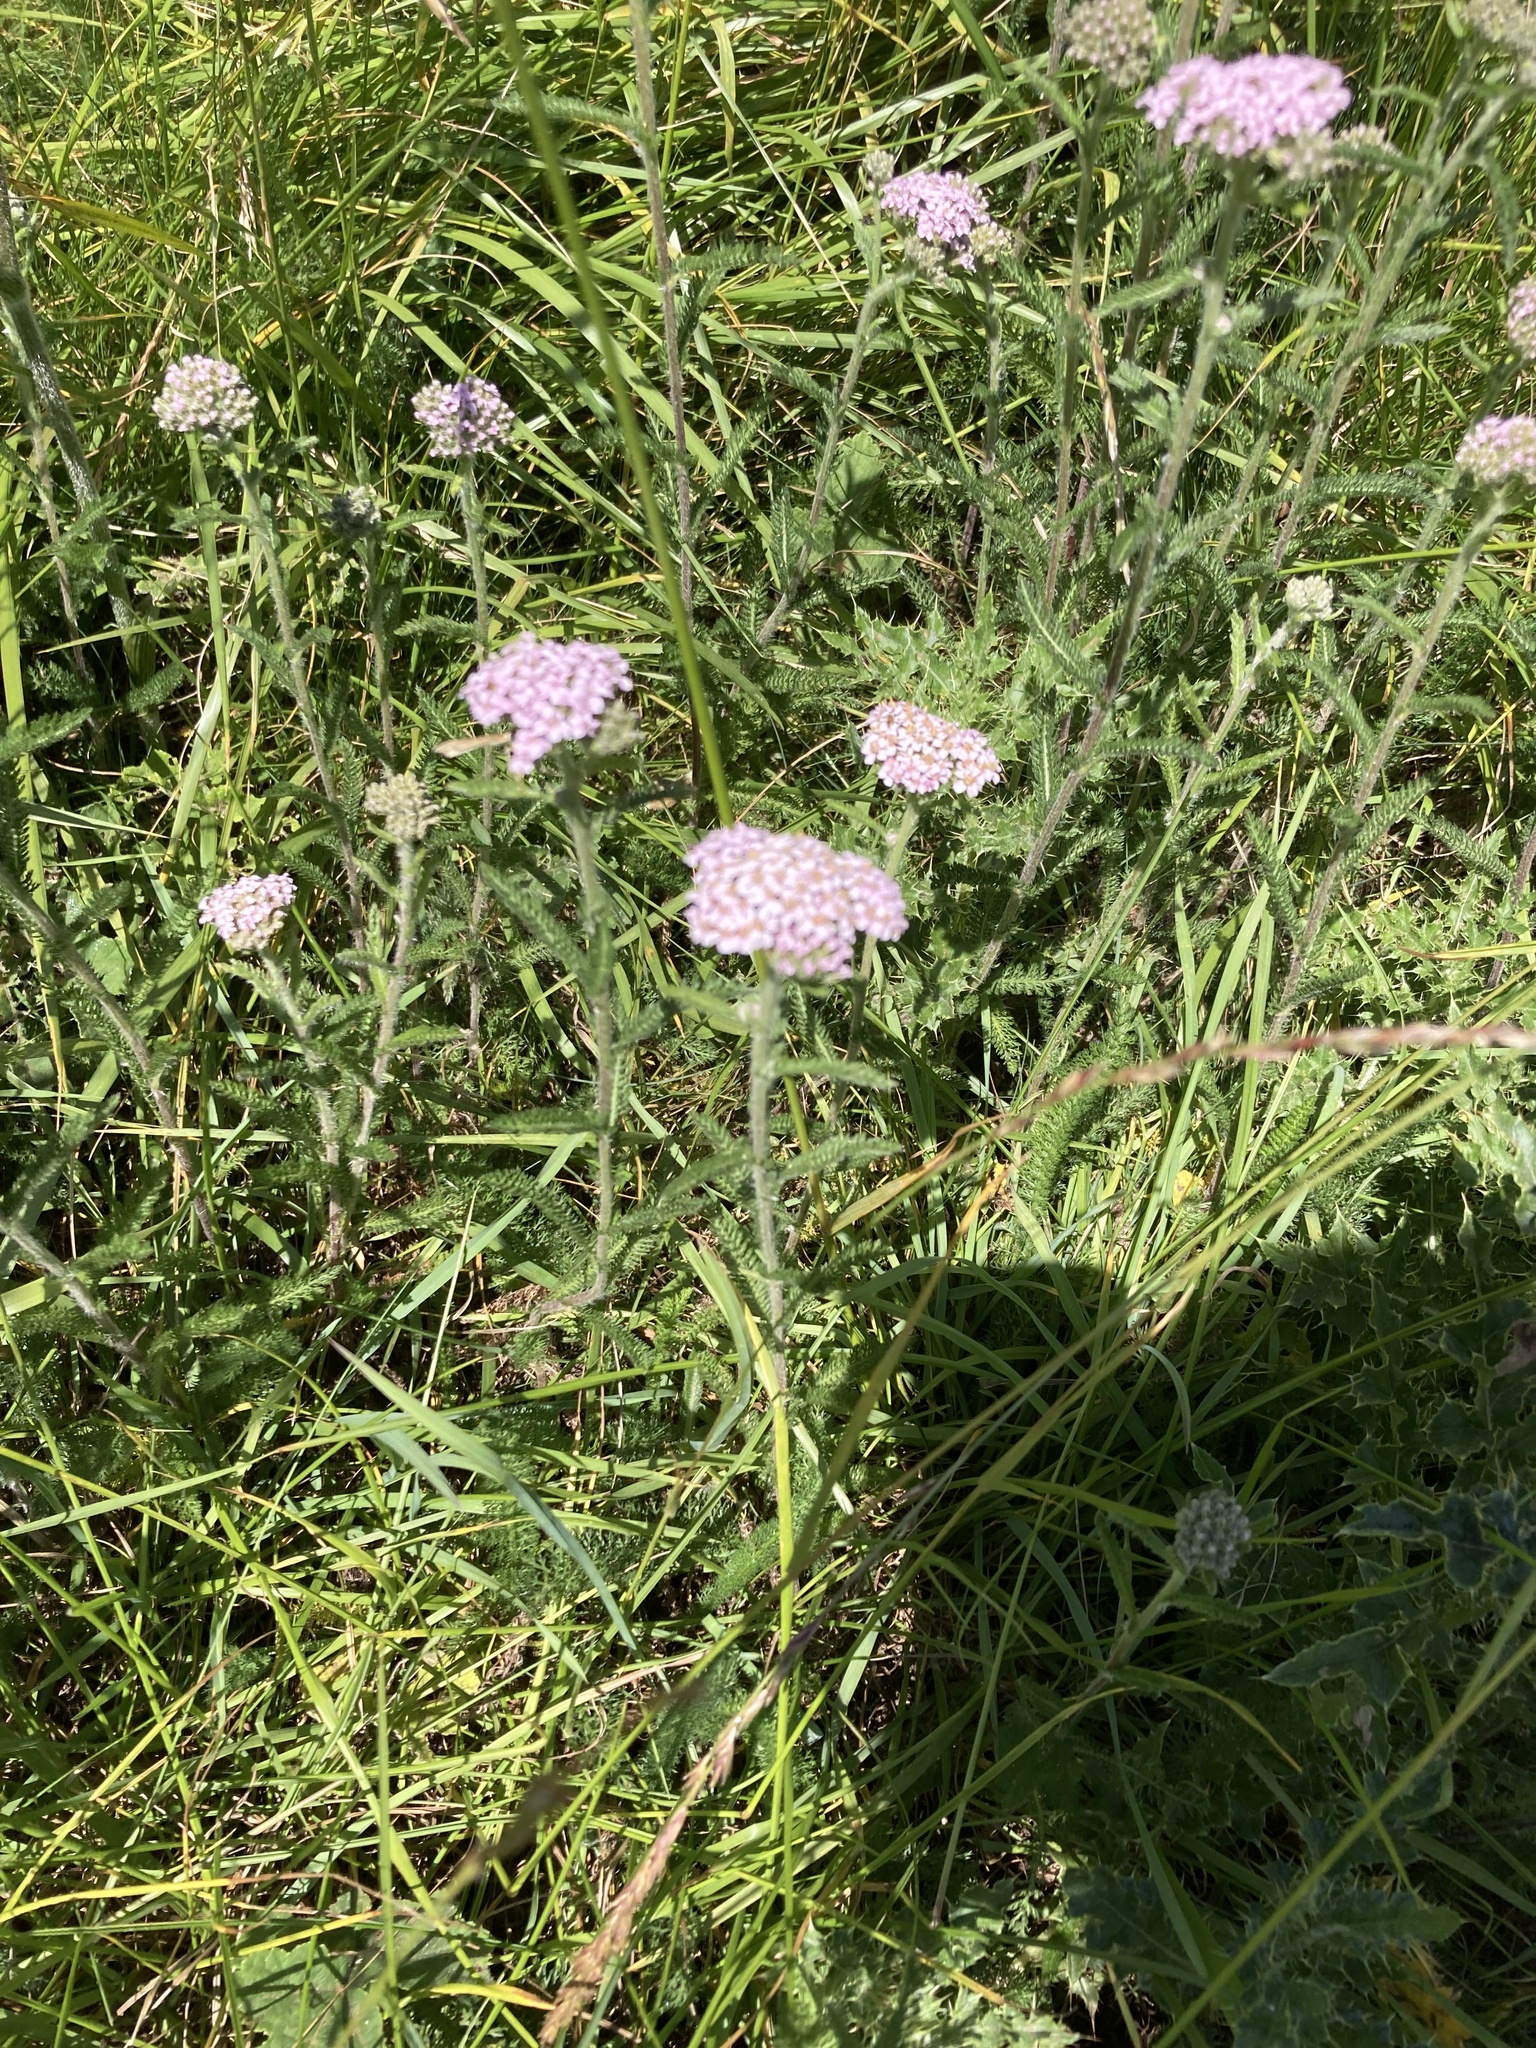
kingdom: Plantae
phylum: Tracheophyta
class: Magnoliopsida
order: Asterales
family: Asteraceae
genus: Achillea
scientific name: Achillea millefolium
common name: Yarrow
